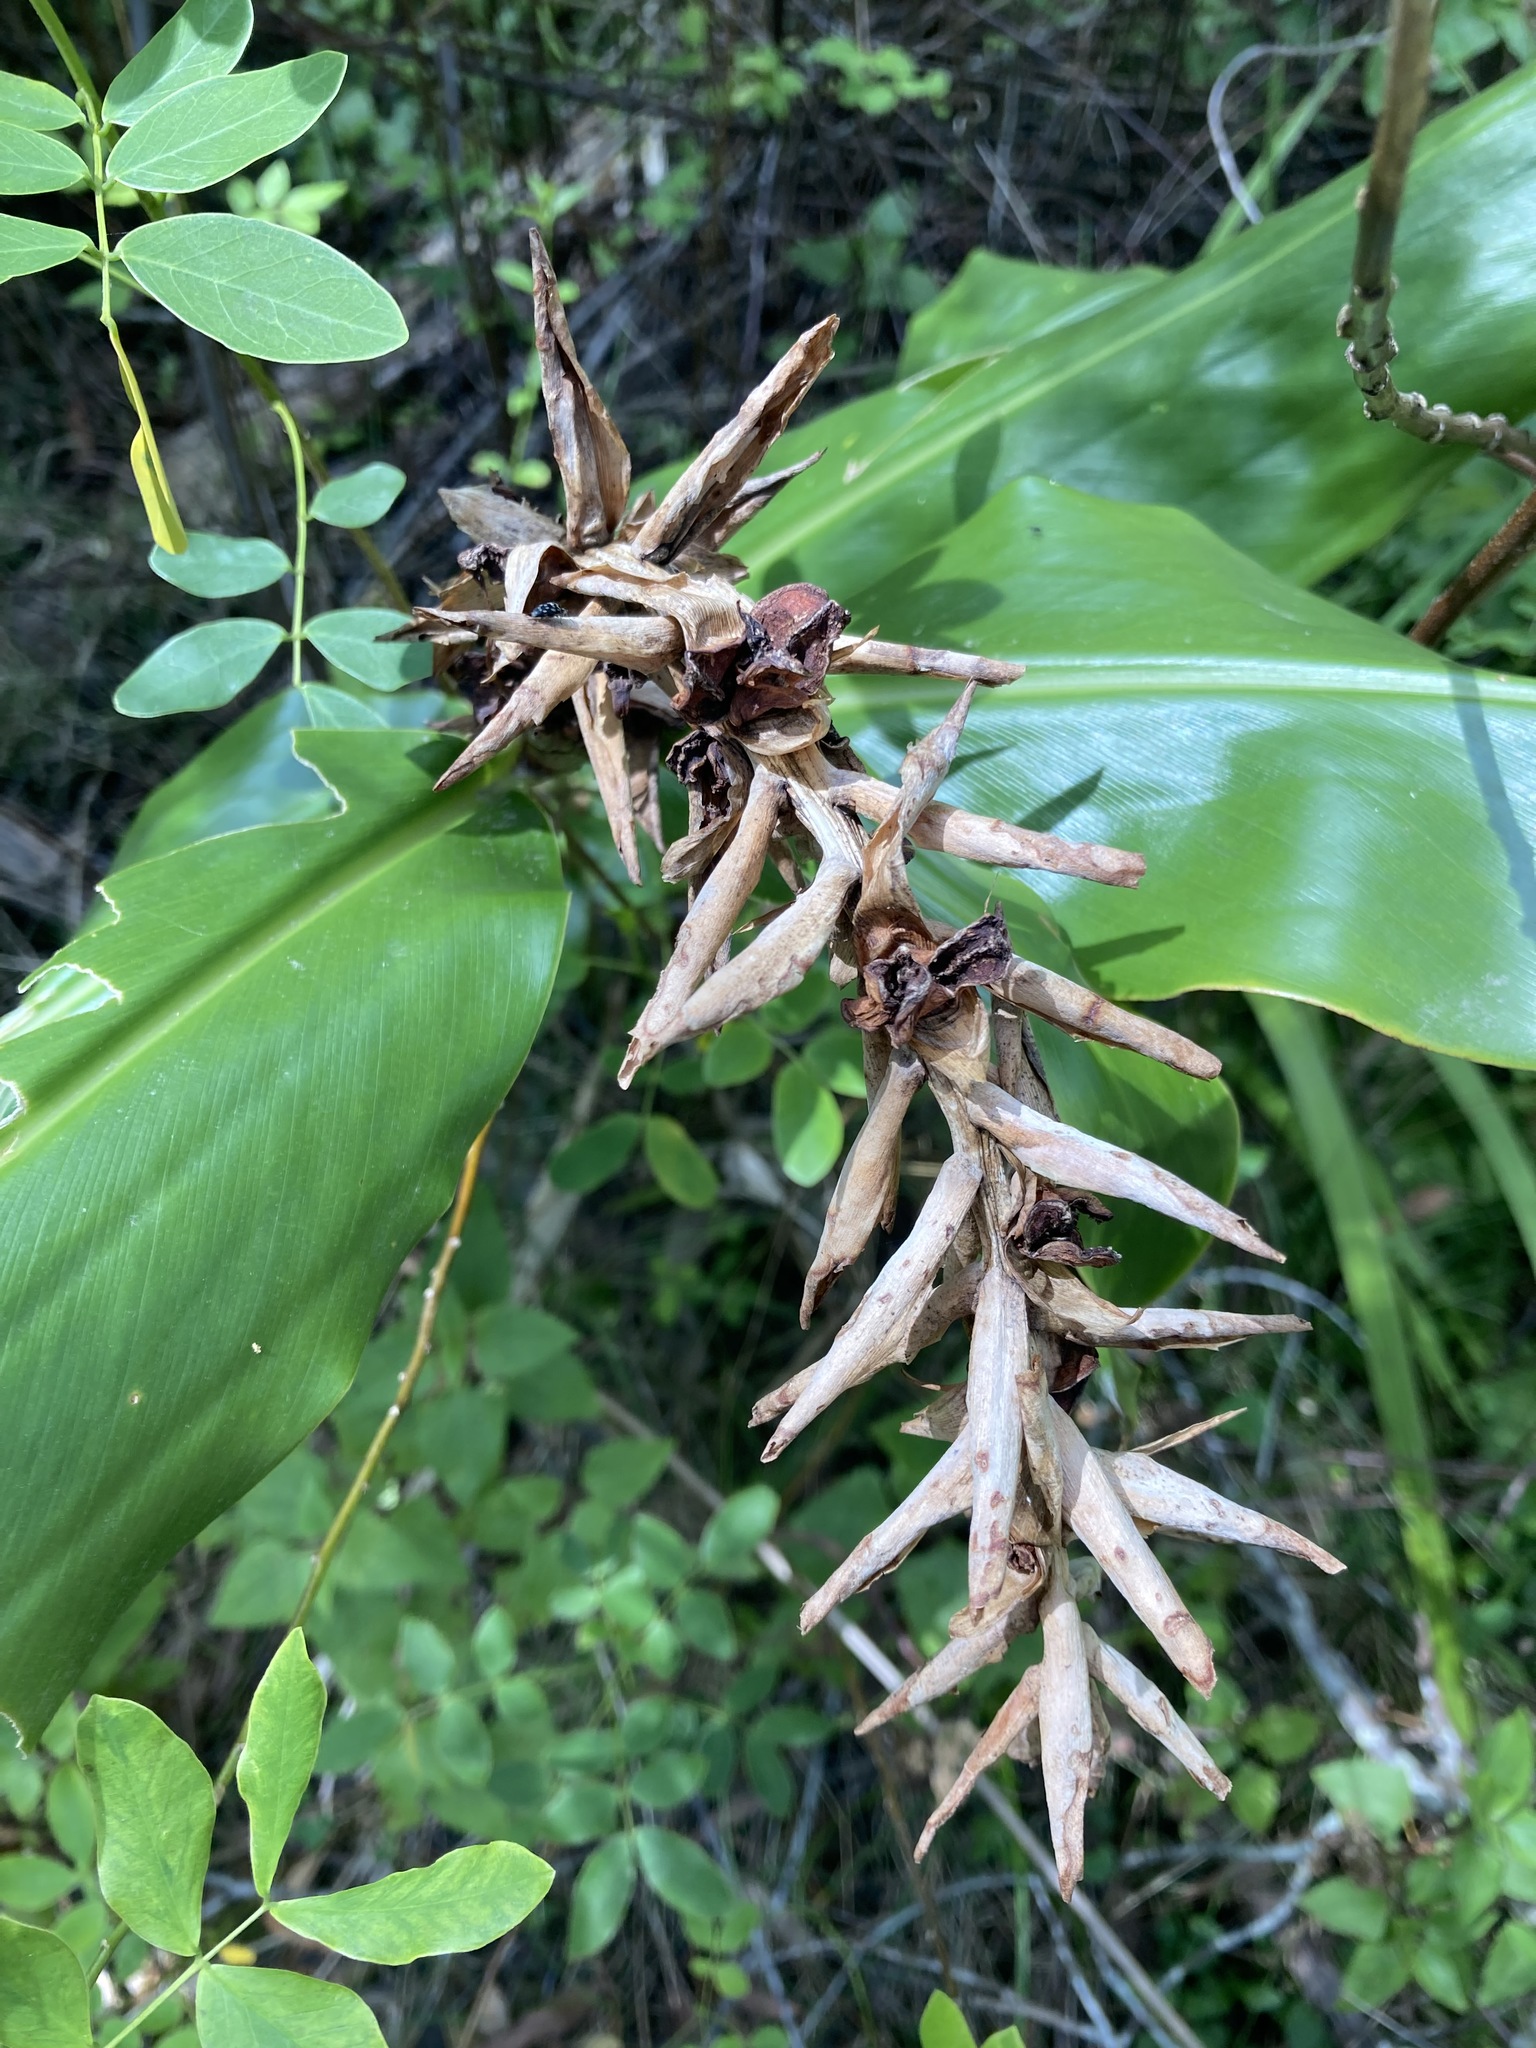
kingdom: Plantae
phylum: Tracheophyta
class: Liliopsida
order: Zingiberales
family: Zingiberaceae
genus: Hedychium
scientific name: Hedychium gardnerianum
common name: Himalayan ginger
